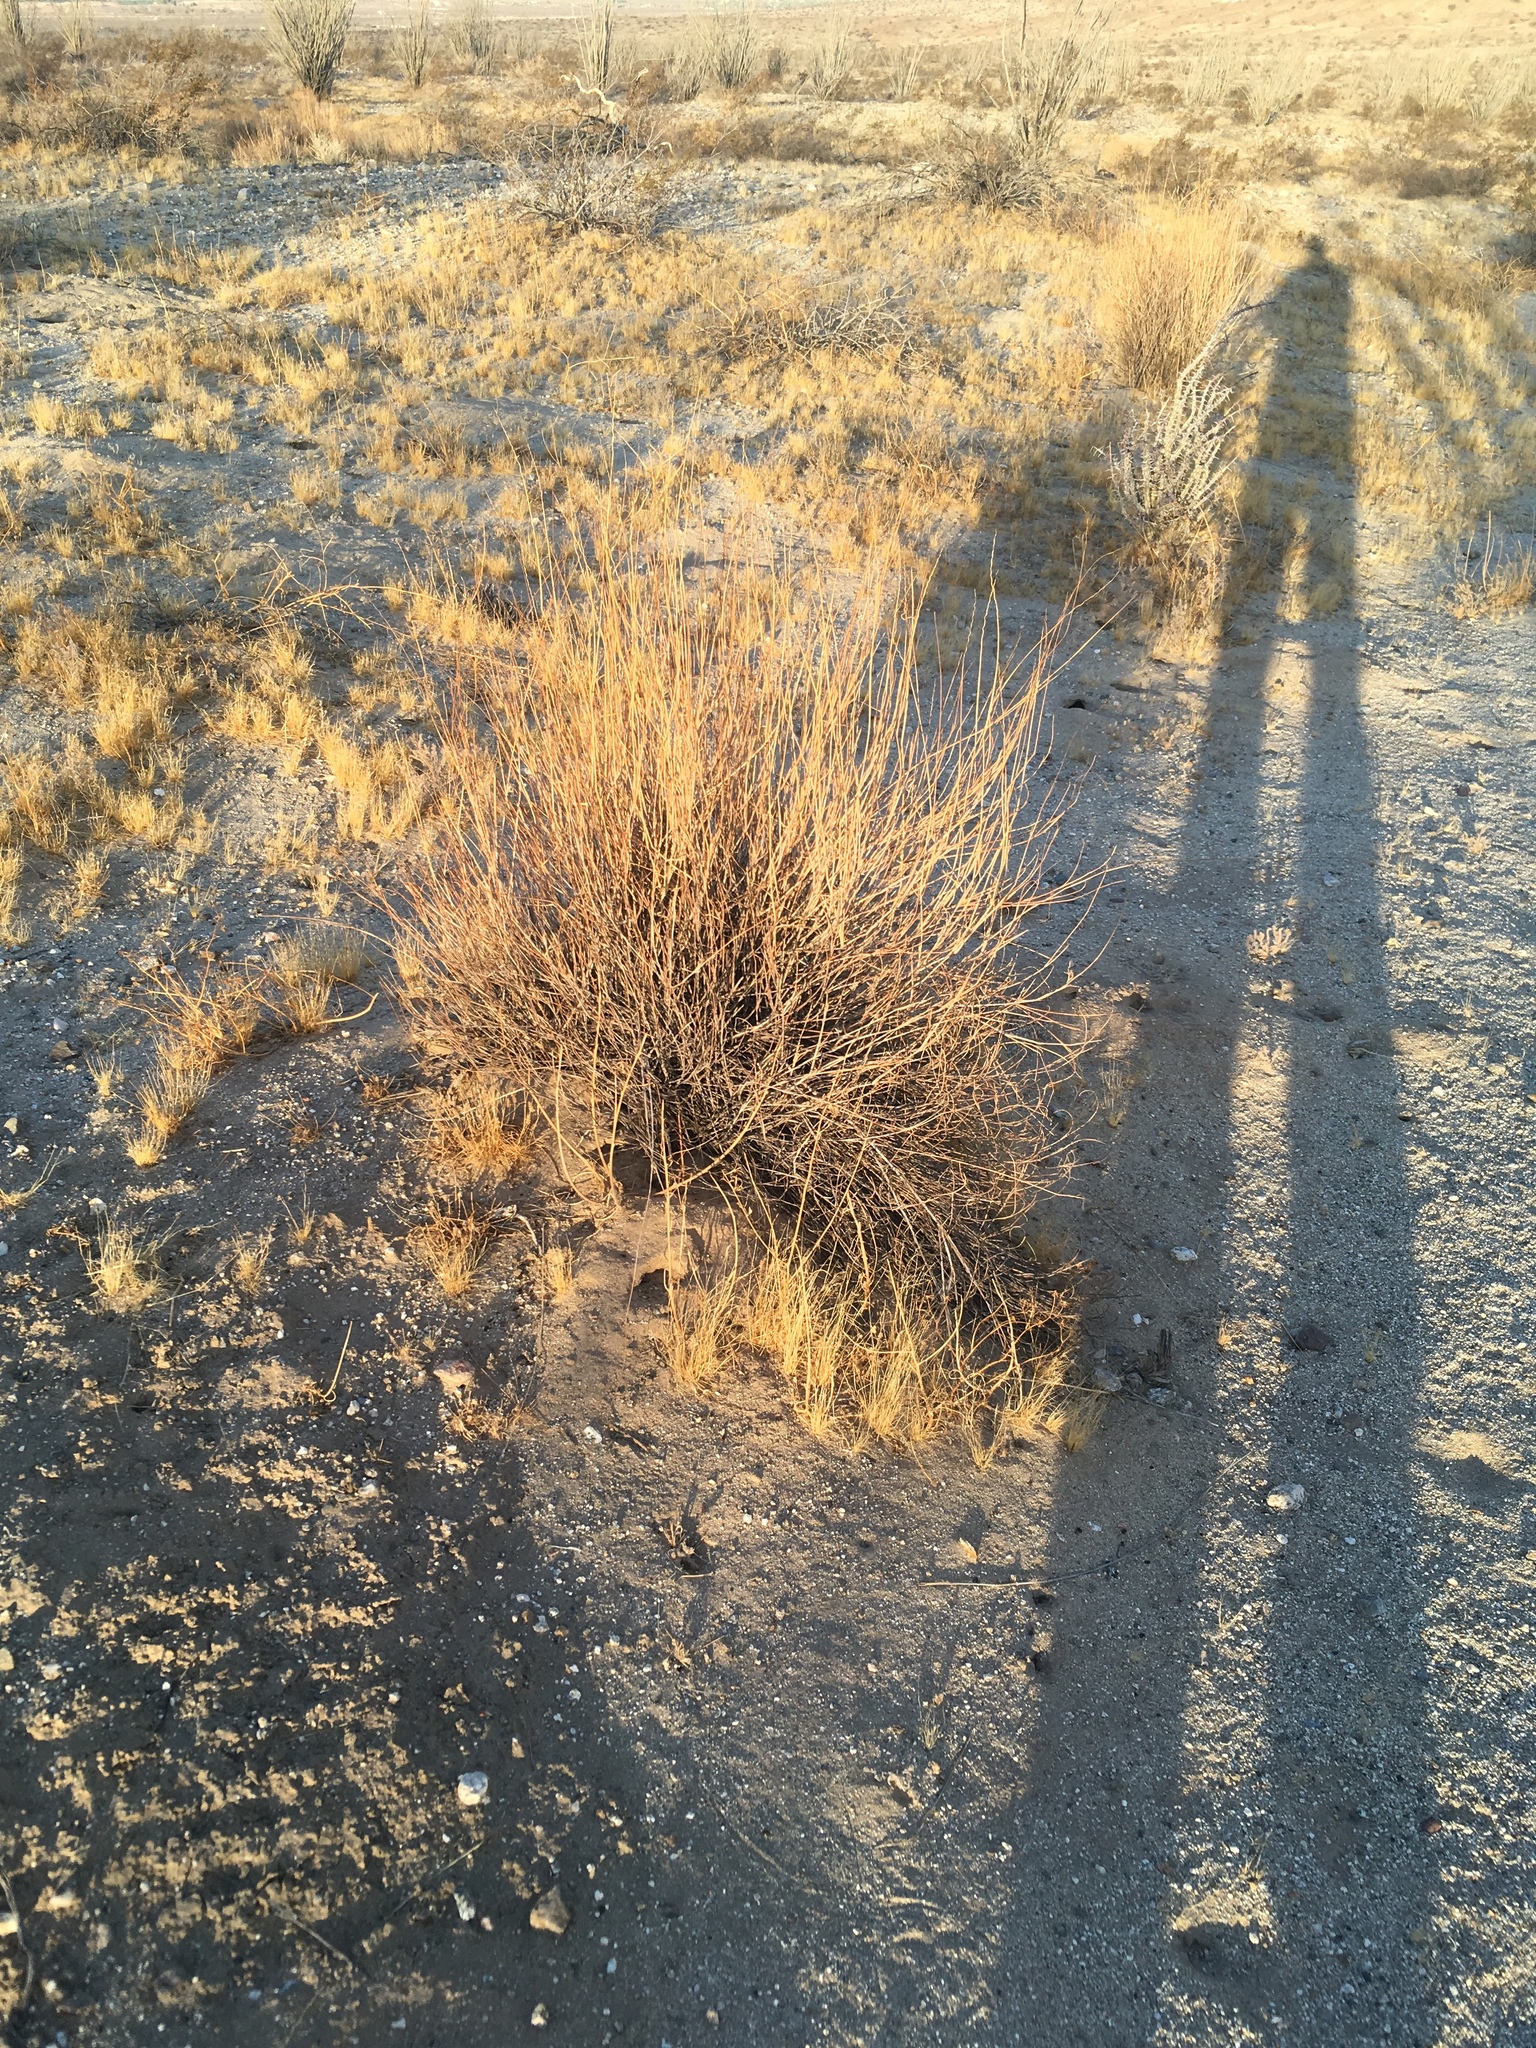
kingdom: Plantae
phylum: Tracheophyta
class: Liliopsida
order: Poales
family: Poaceae
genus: Hilaria
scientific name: Hilaria rigida
